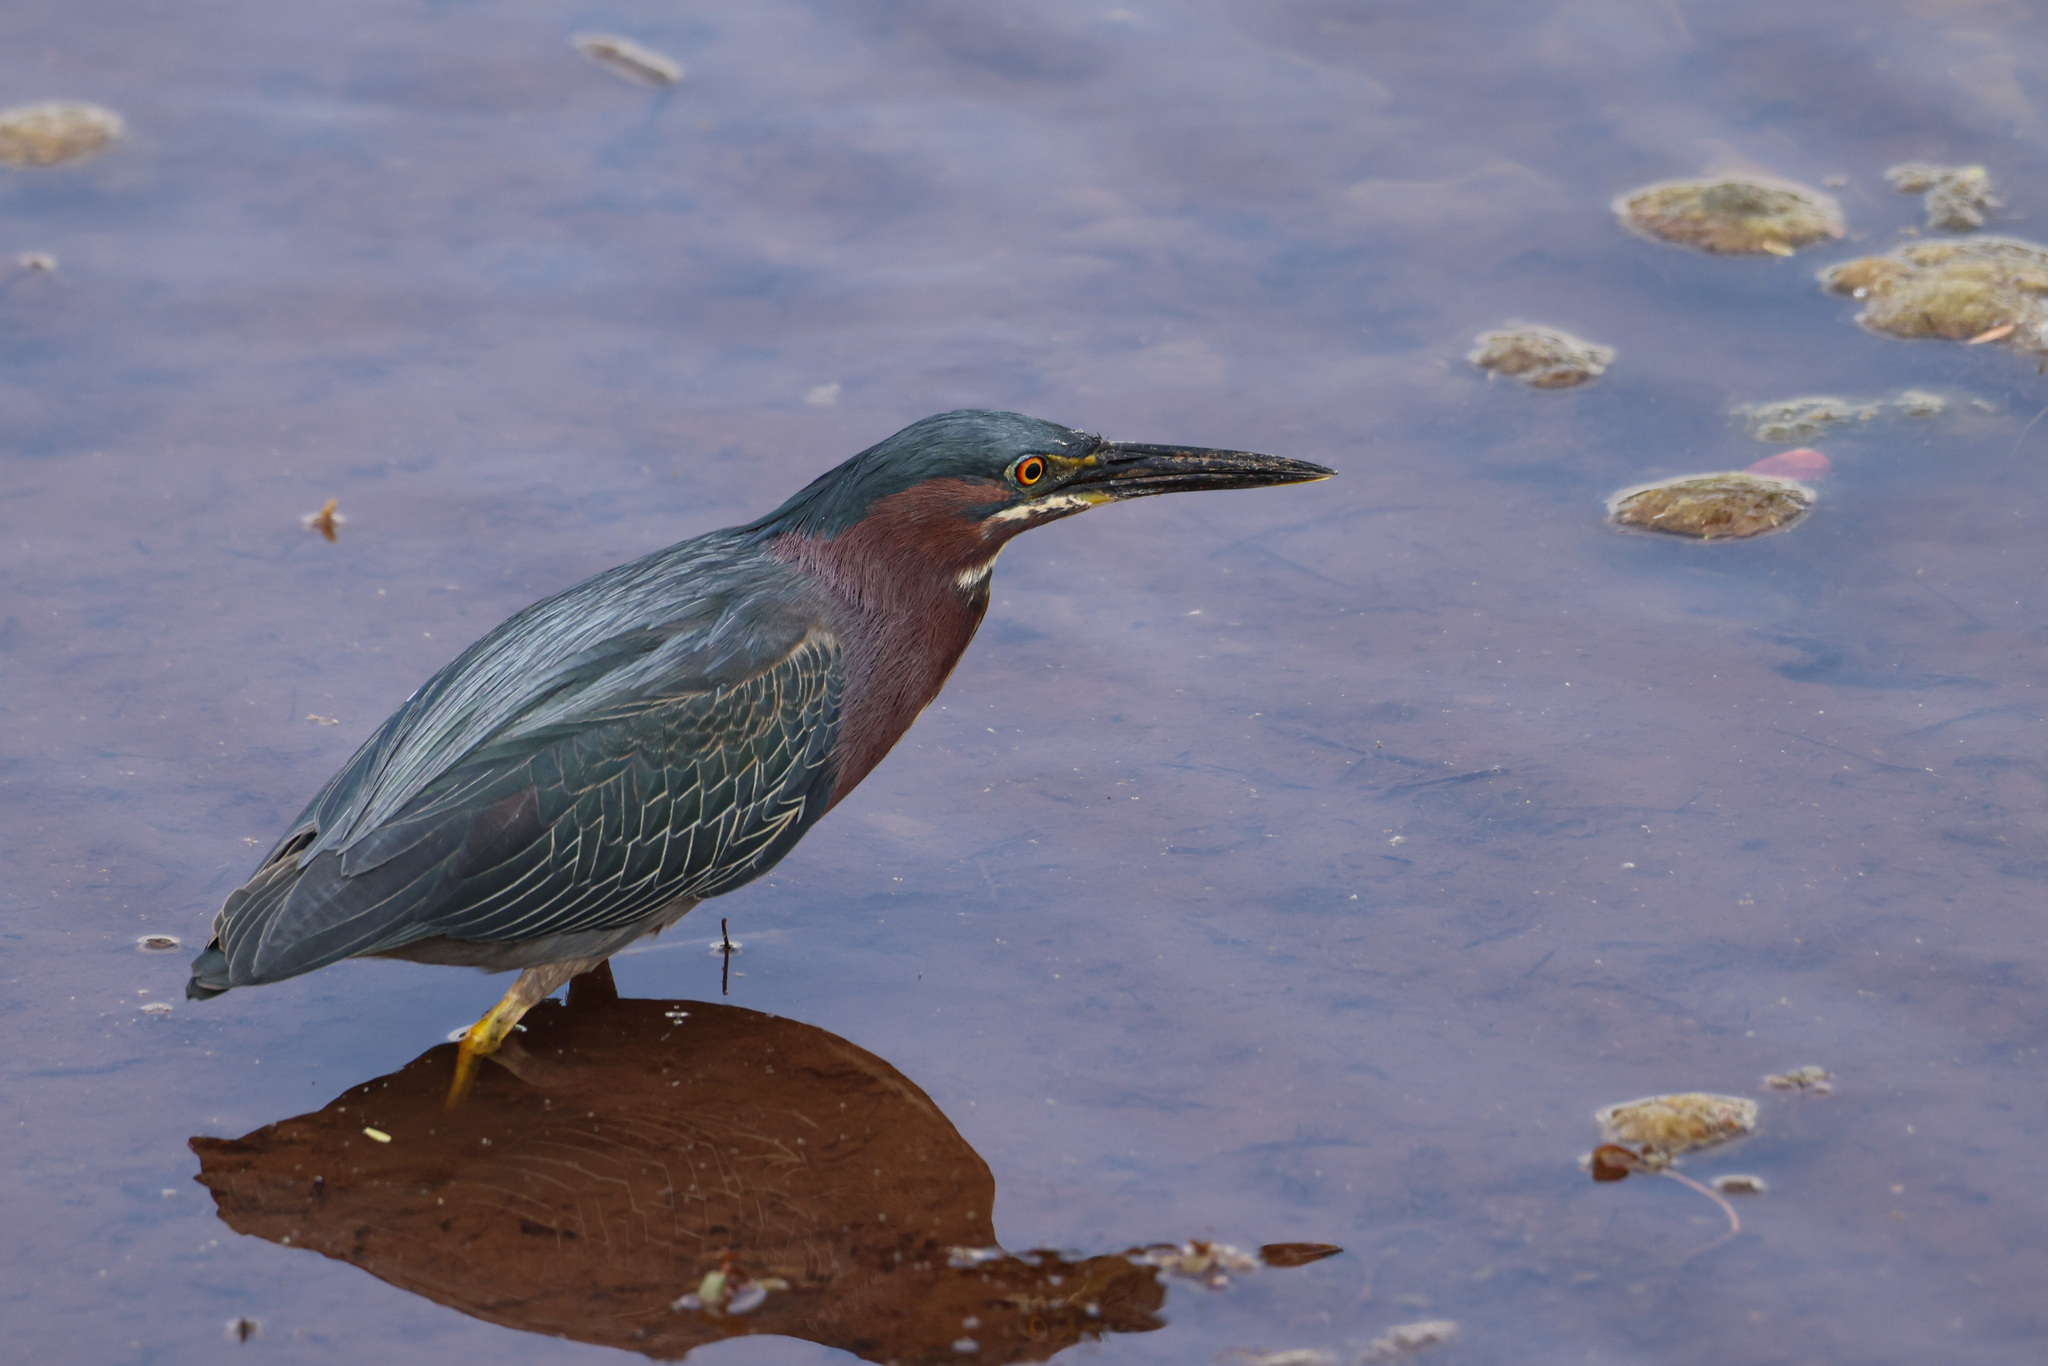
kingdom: Animalia
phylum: Chordata
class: Aves
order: Pelecaniformes
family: Ardeidae
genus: Butorides
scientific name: Butorides virescens
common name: Green heron
